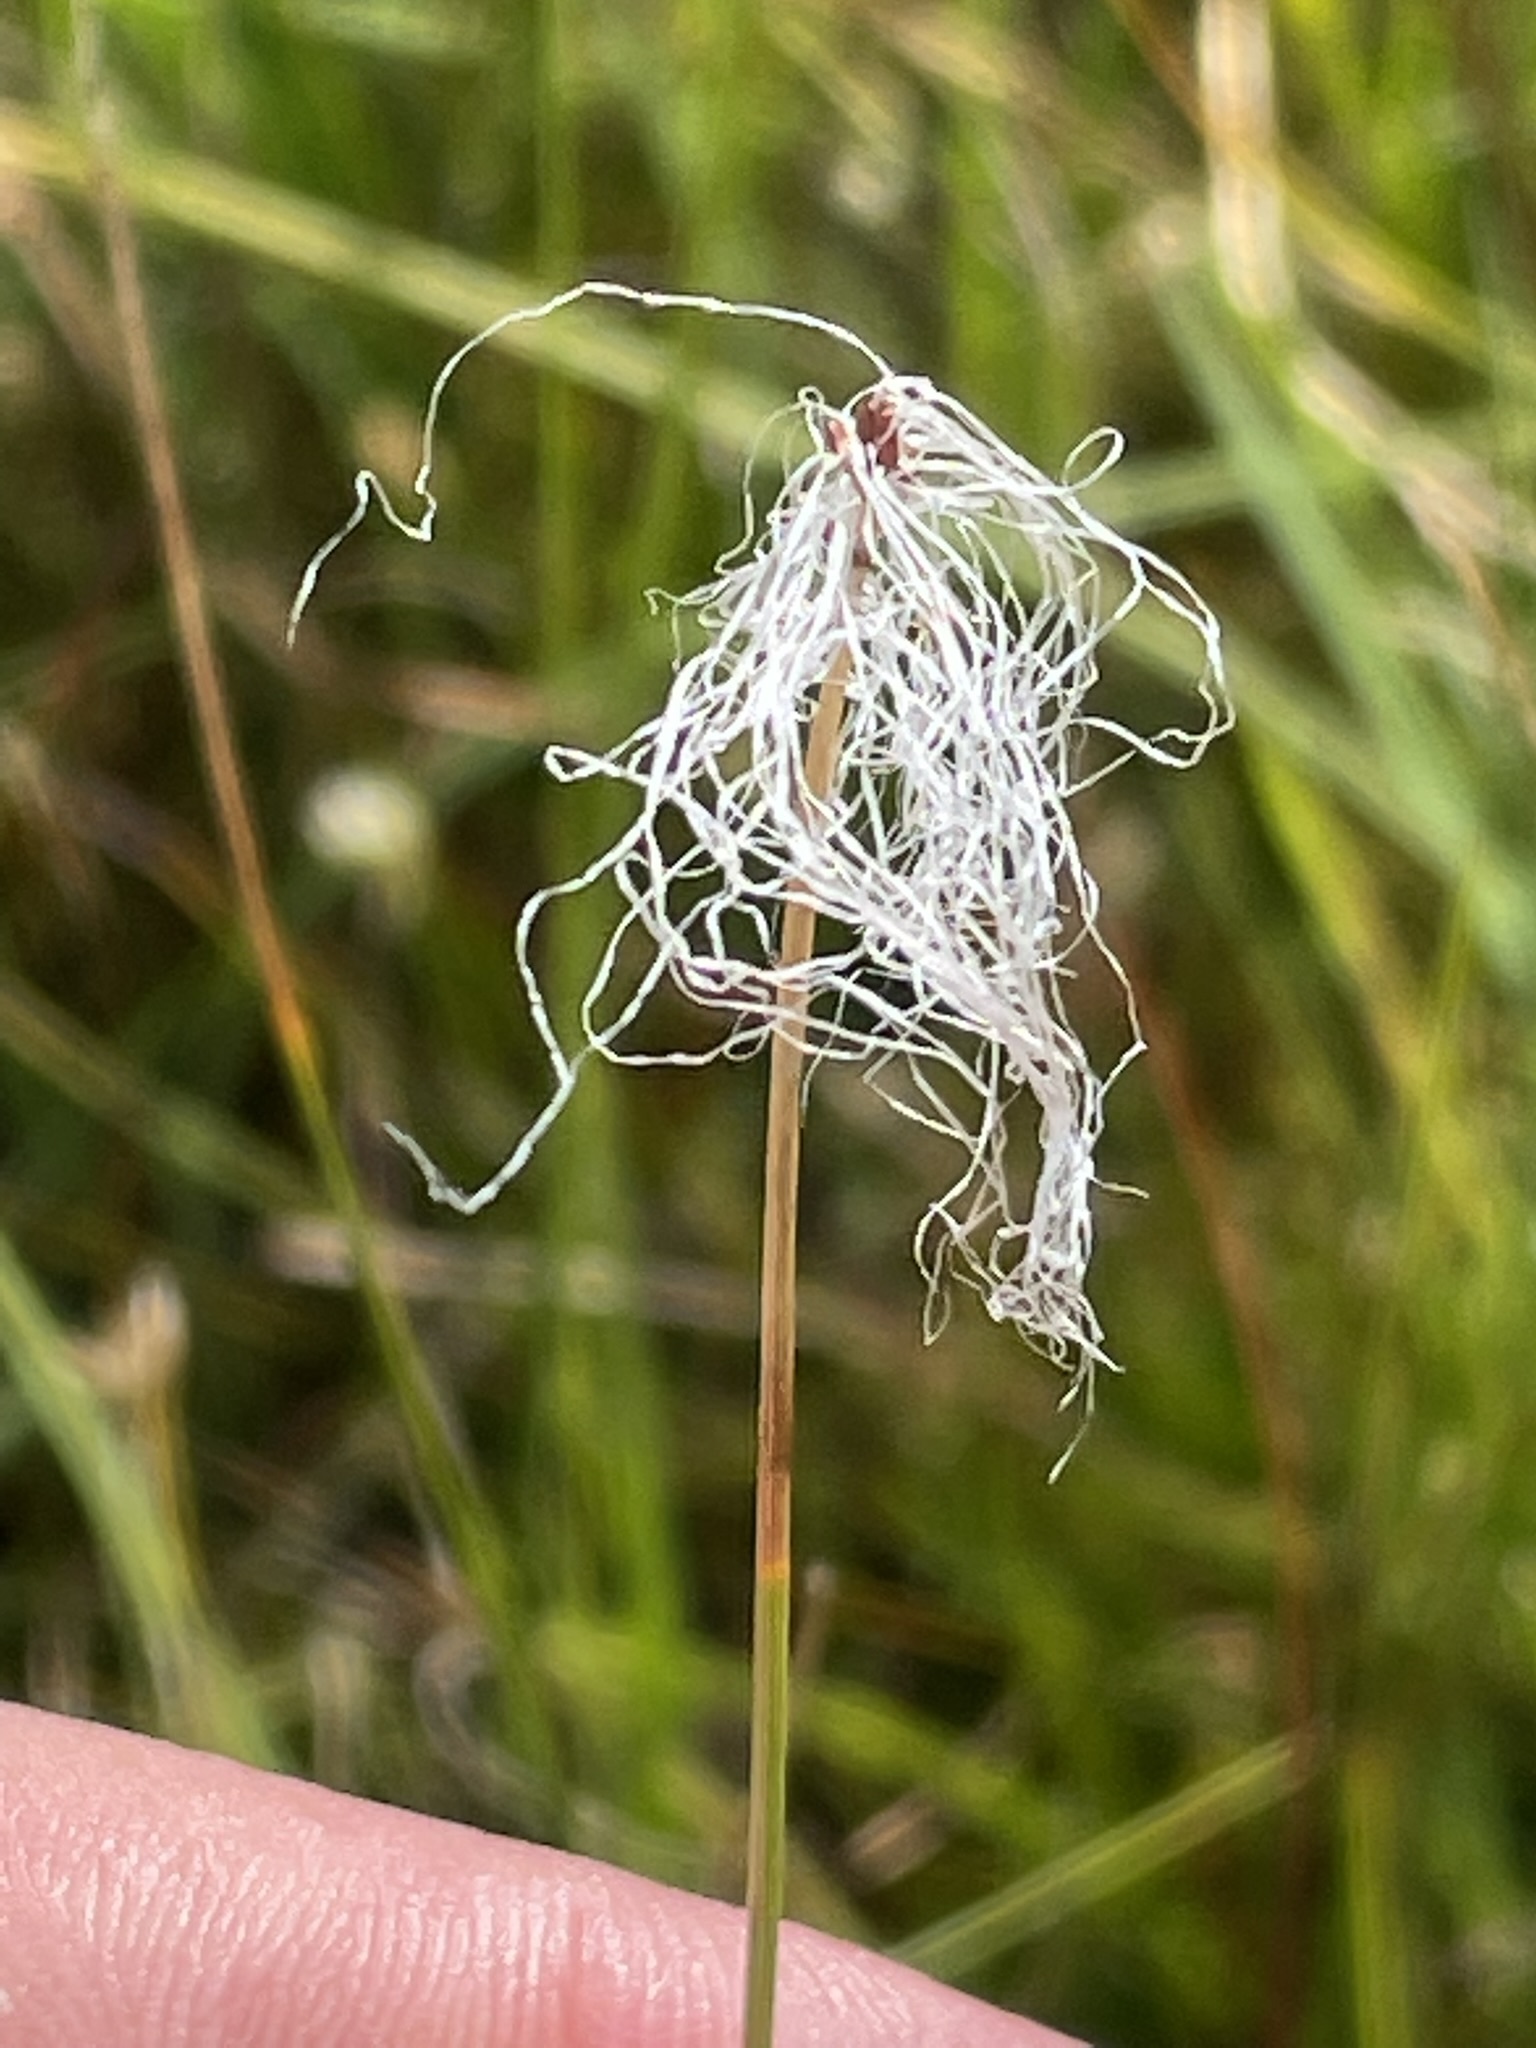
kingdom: Plantae
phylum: Tracheophyta
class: Liliopsida
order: Poales
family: Cyperaceae
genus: Trichophorum
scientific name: Trichophorum alpinum
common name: Alpine bulrush
